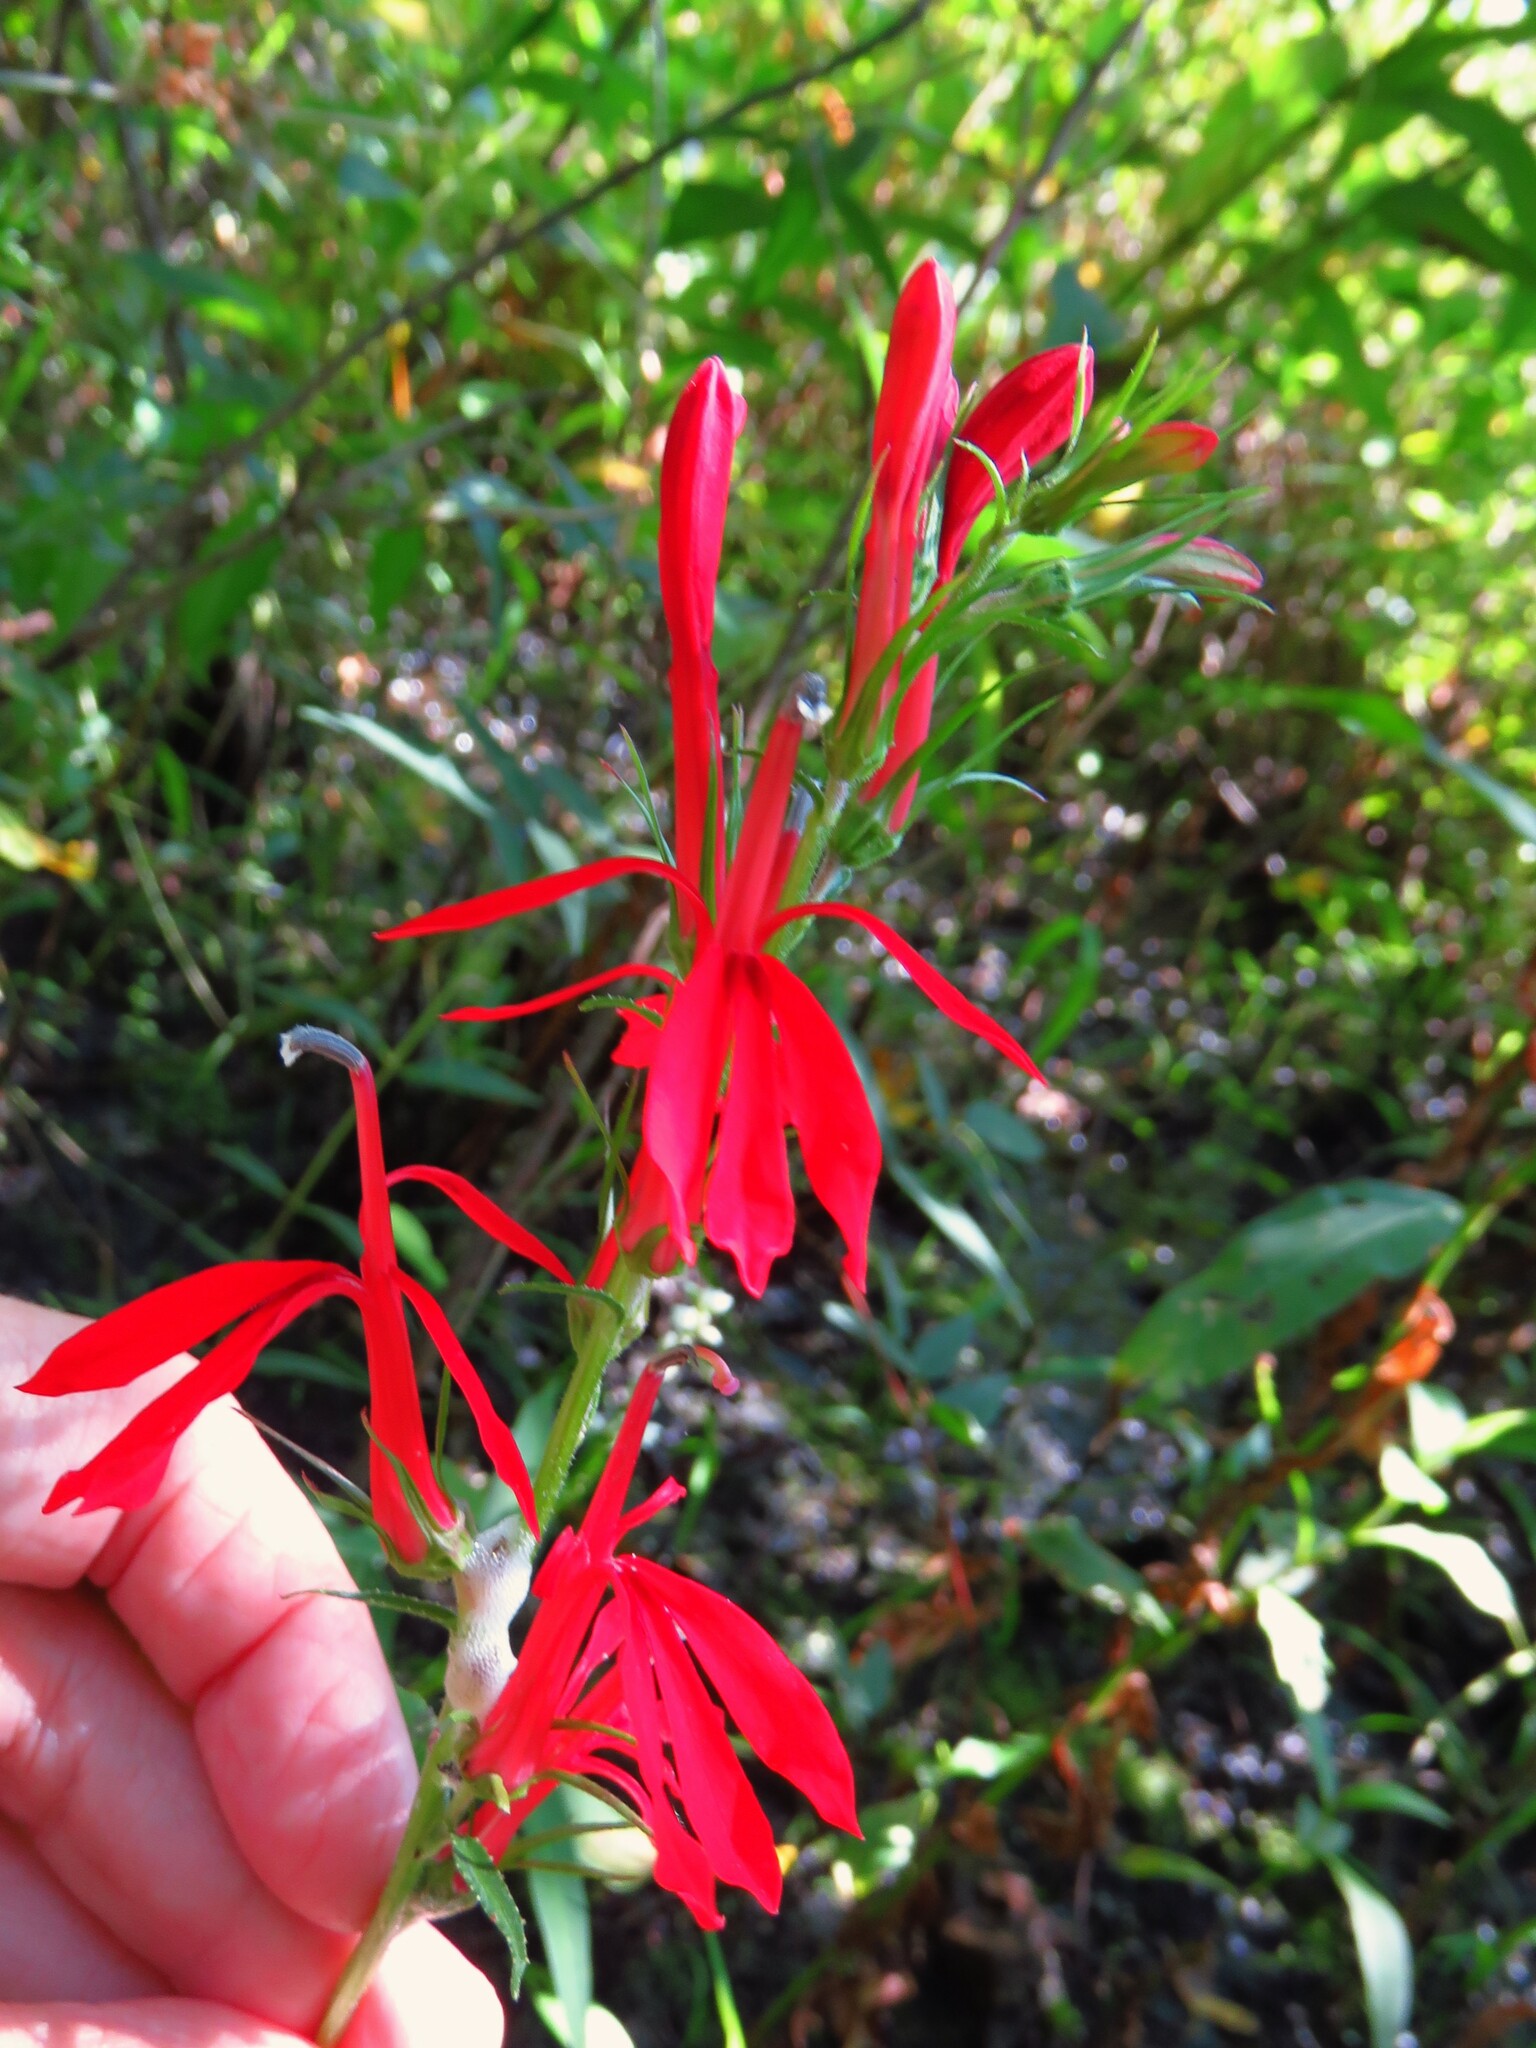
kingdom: Plantae
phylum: Tracheophyta
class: Magnoliopsida
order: Asterales
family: Campanulaceae
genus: Lobelia
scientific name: Lobelia cardinalis
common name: Cardinal flower
